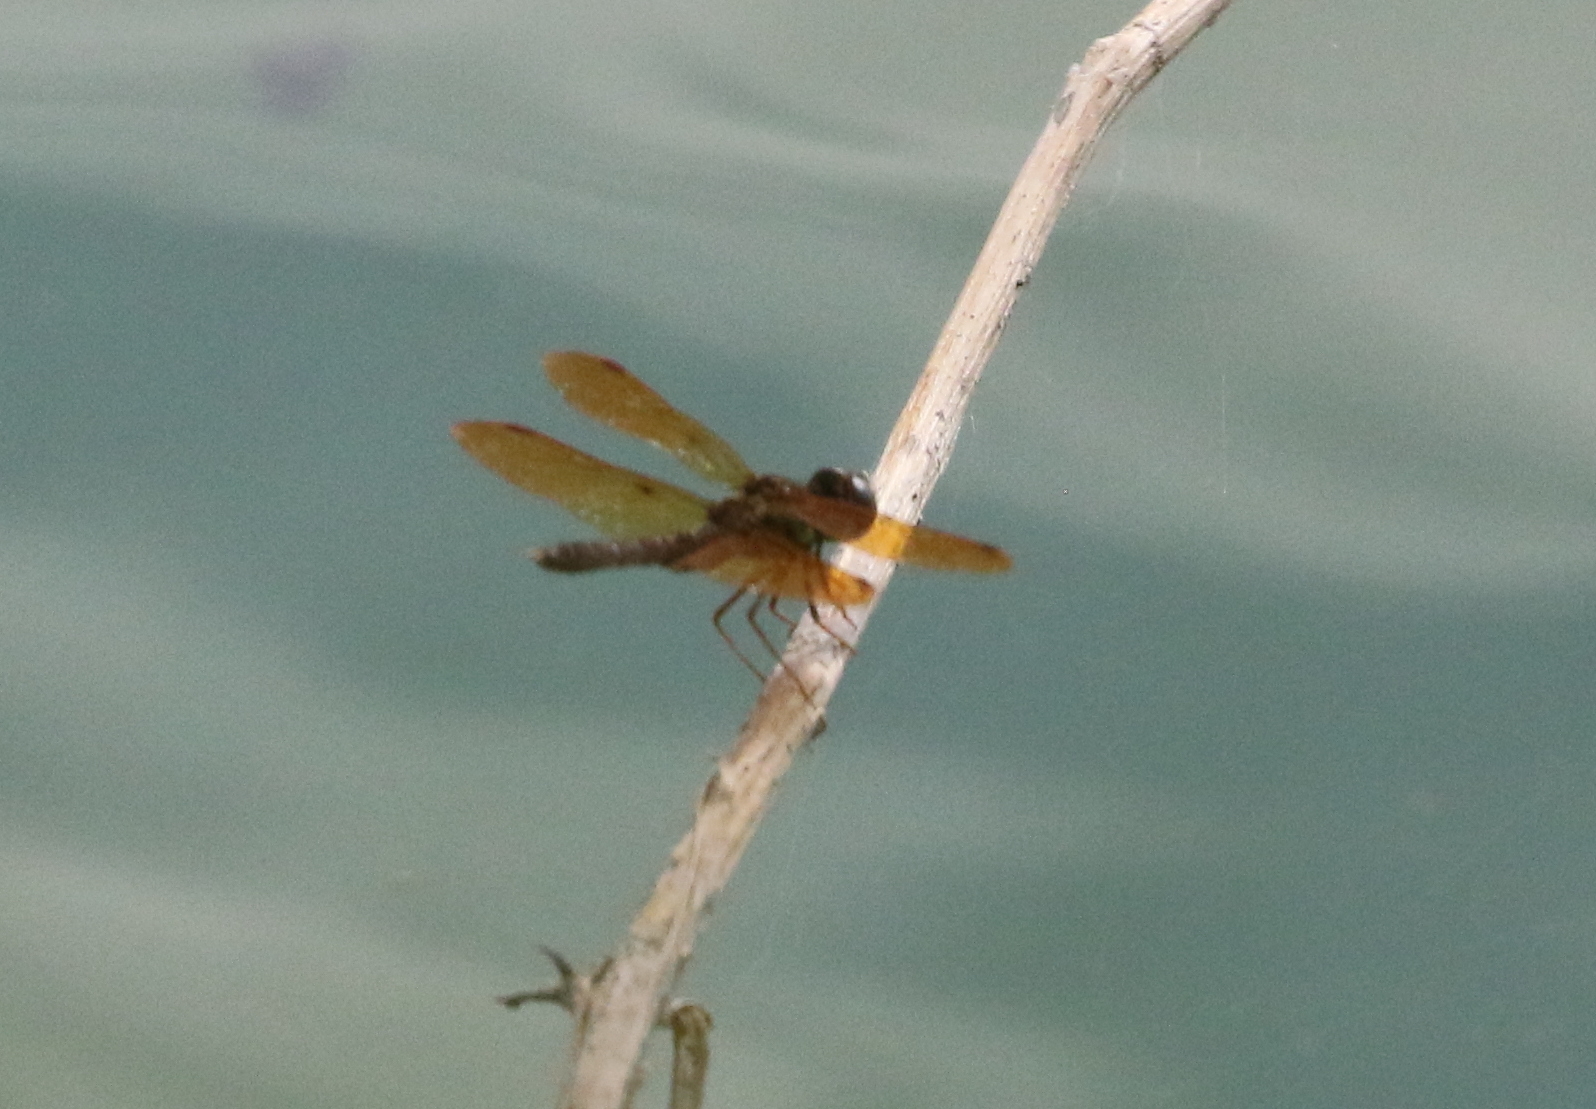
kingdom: Animalia
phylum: Arthropoda
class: Insecta
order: Odonata
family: Libellulidae
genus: Perithemis
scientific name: Perithemis tenera
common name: Eastern amberwing
